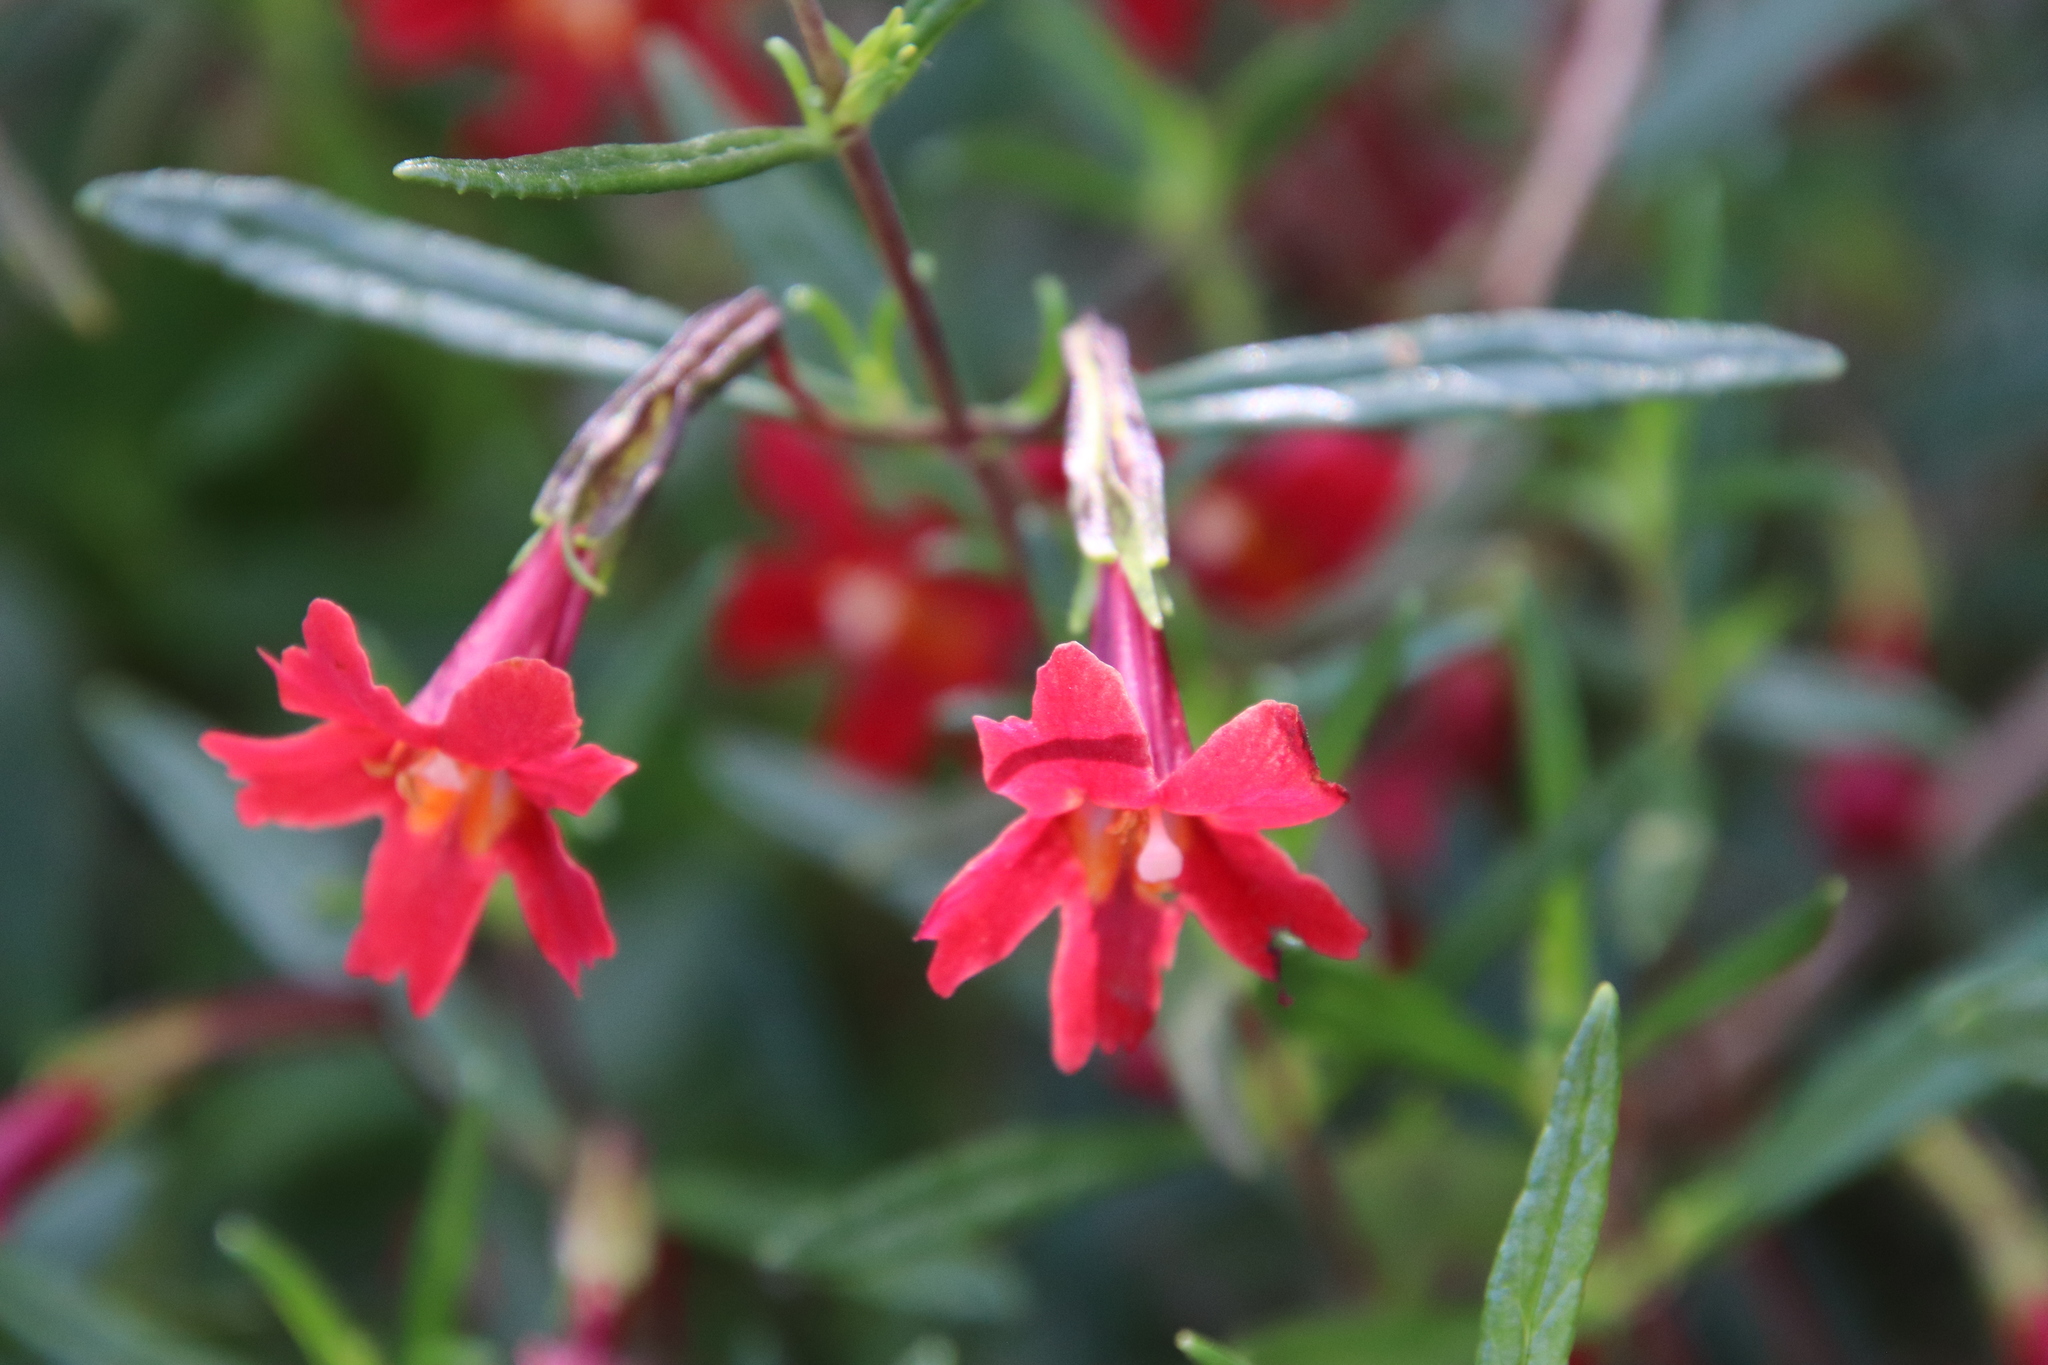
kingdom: Plantae
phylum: Tracheophyta
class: Magnoliopsida
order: Lamiales
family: Phrymaceae
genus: Diplacus
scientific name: Diplacus puniceus
